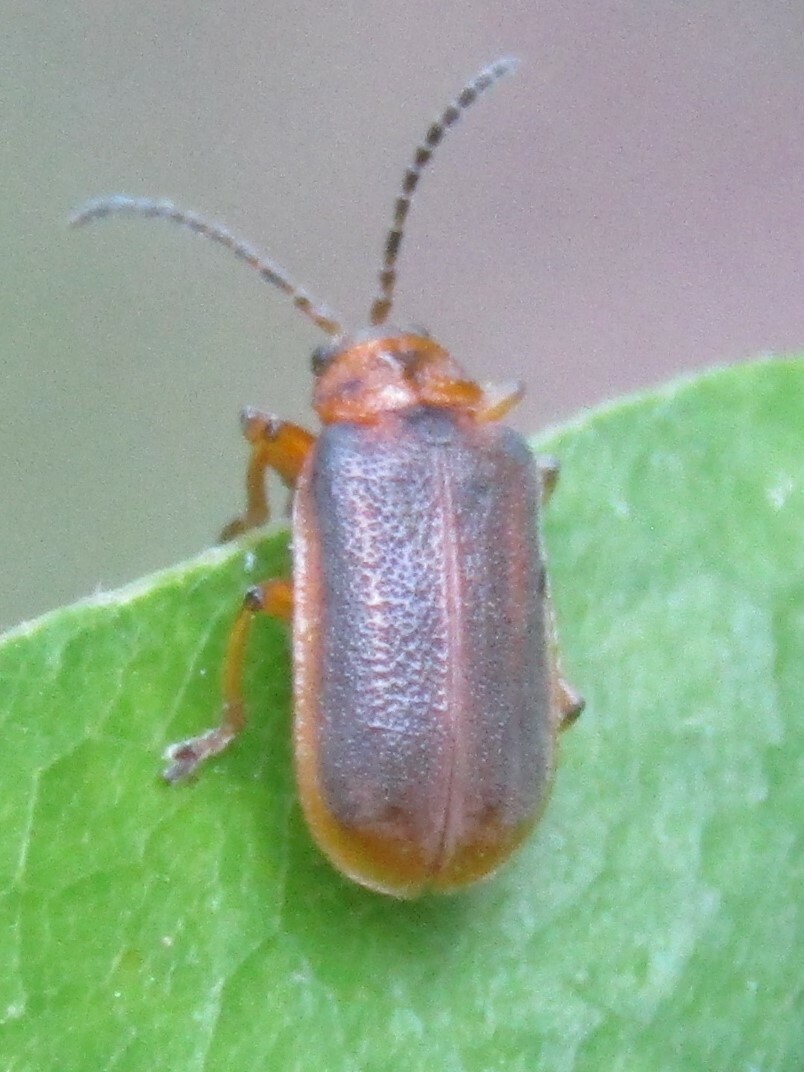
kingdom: Animalia
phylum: Arthropoda
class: Insecta
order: Coleoptera
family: Chrysomelidae
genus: Galerucella
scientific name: Galerucella nymphaeae
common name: Leaf beetle
